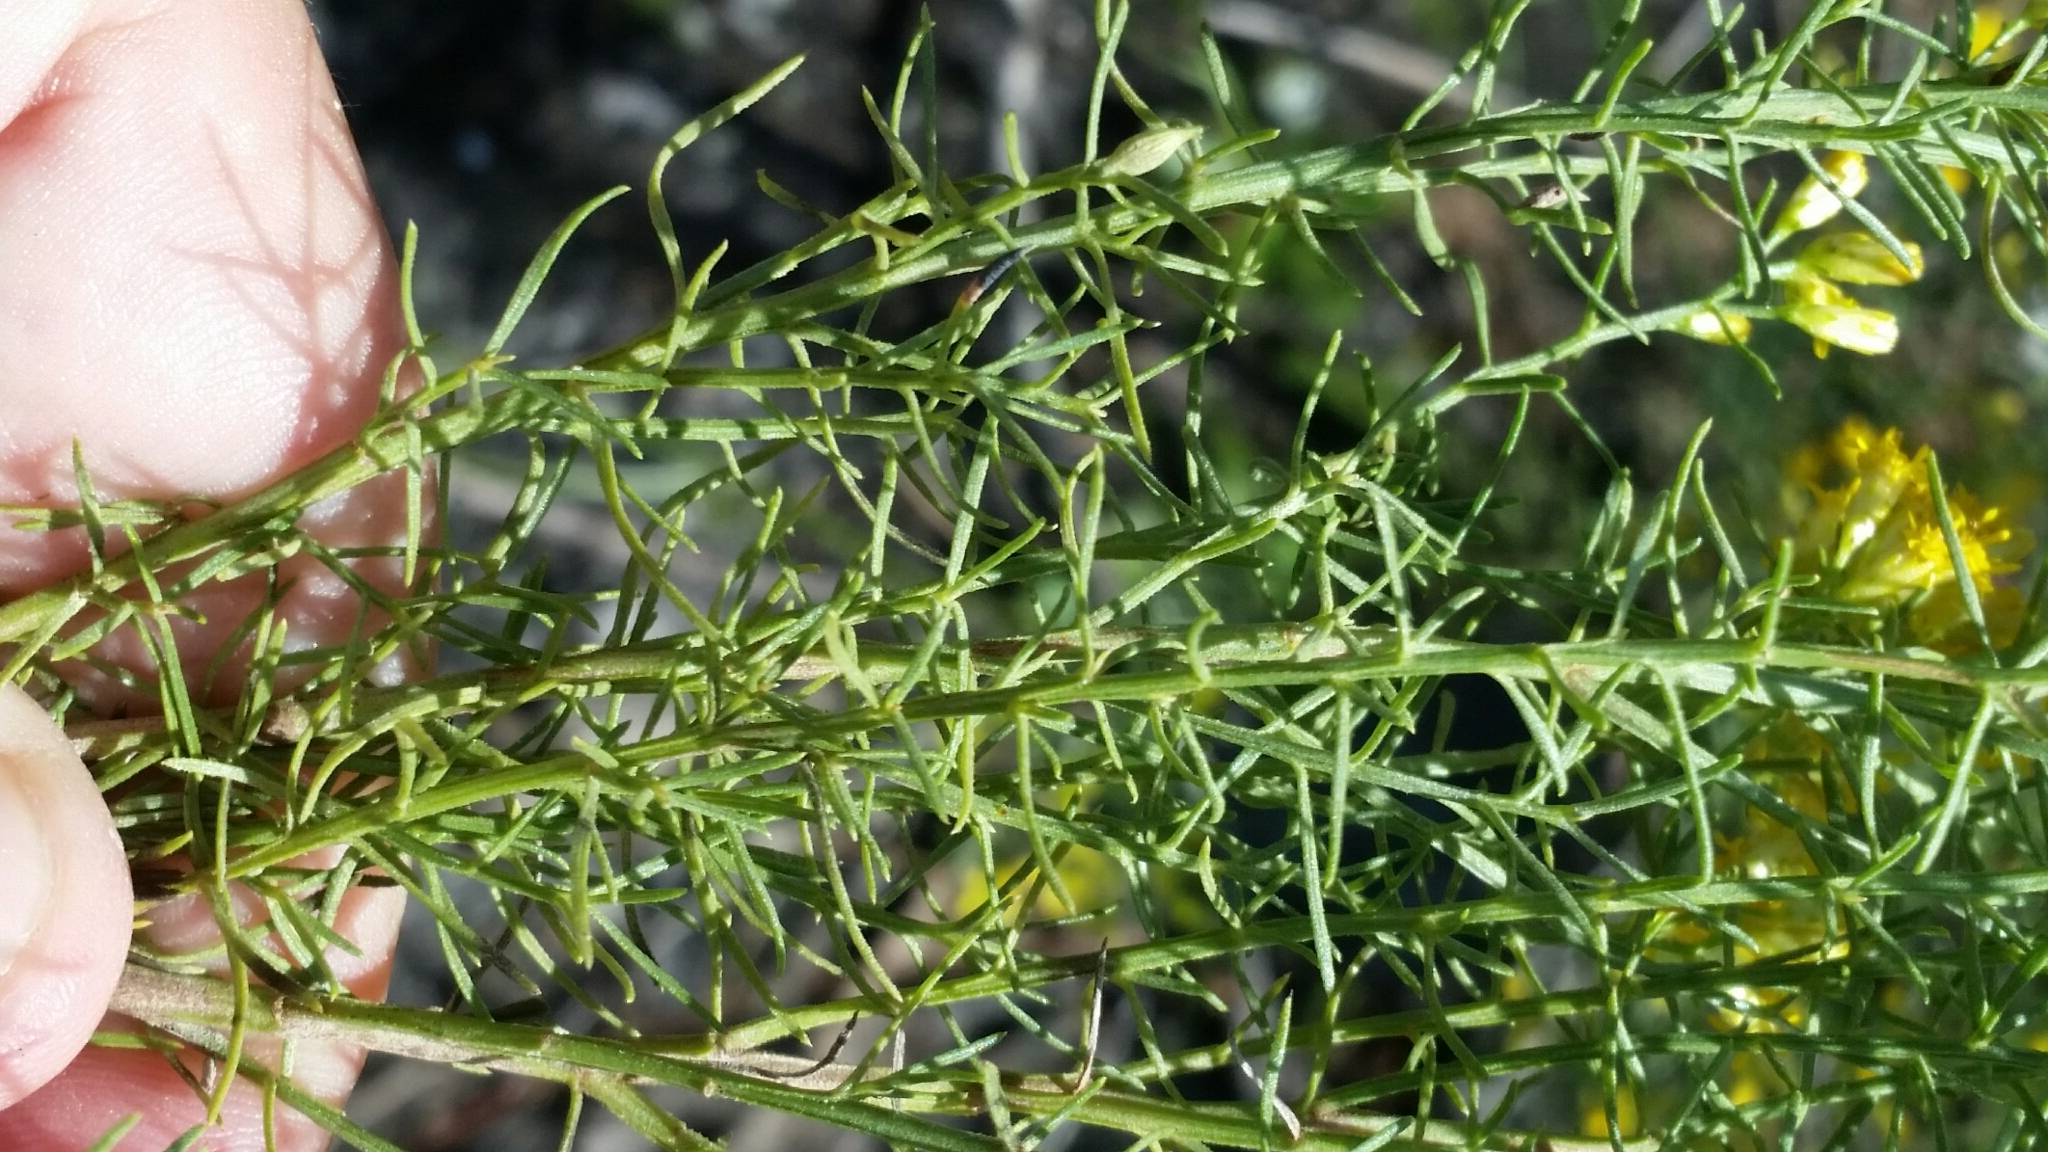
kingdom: Plantae
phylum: Tracheophyta
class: Magnoliopsida
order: Asterales
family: Asteraceae
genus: Euthamia
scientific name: Euthamia caroliniana
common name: Coastal plain goldentop
